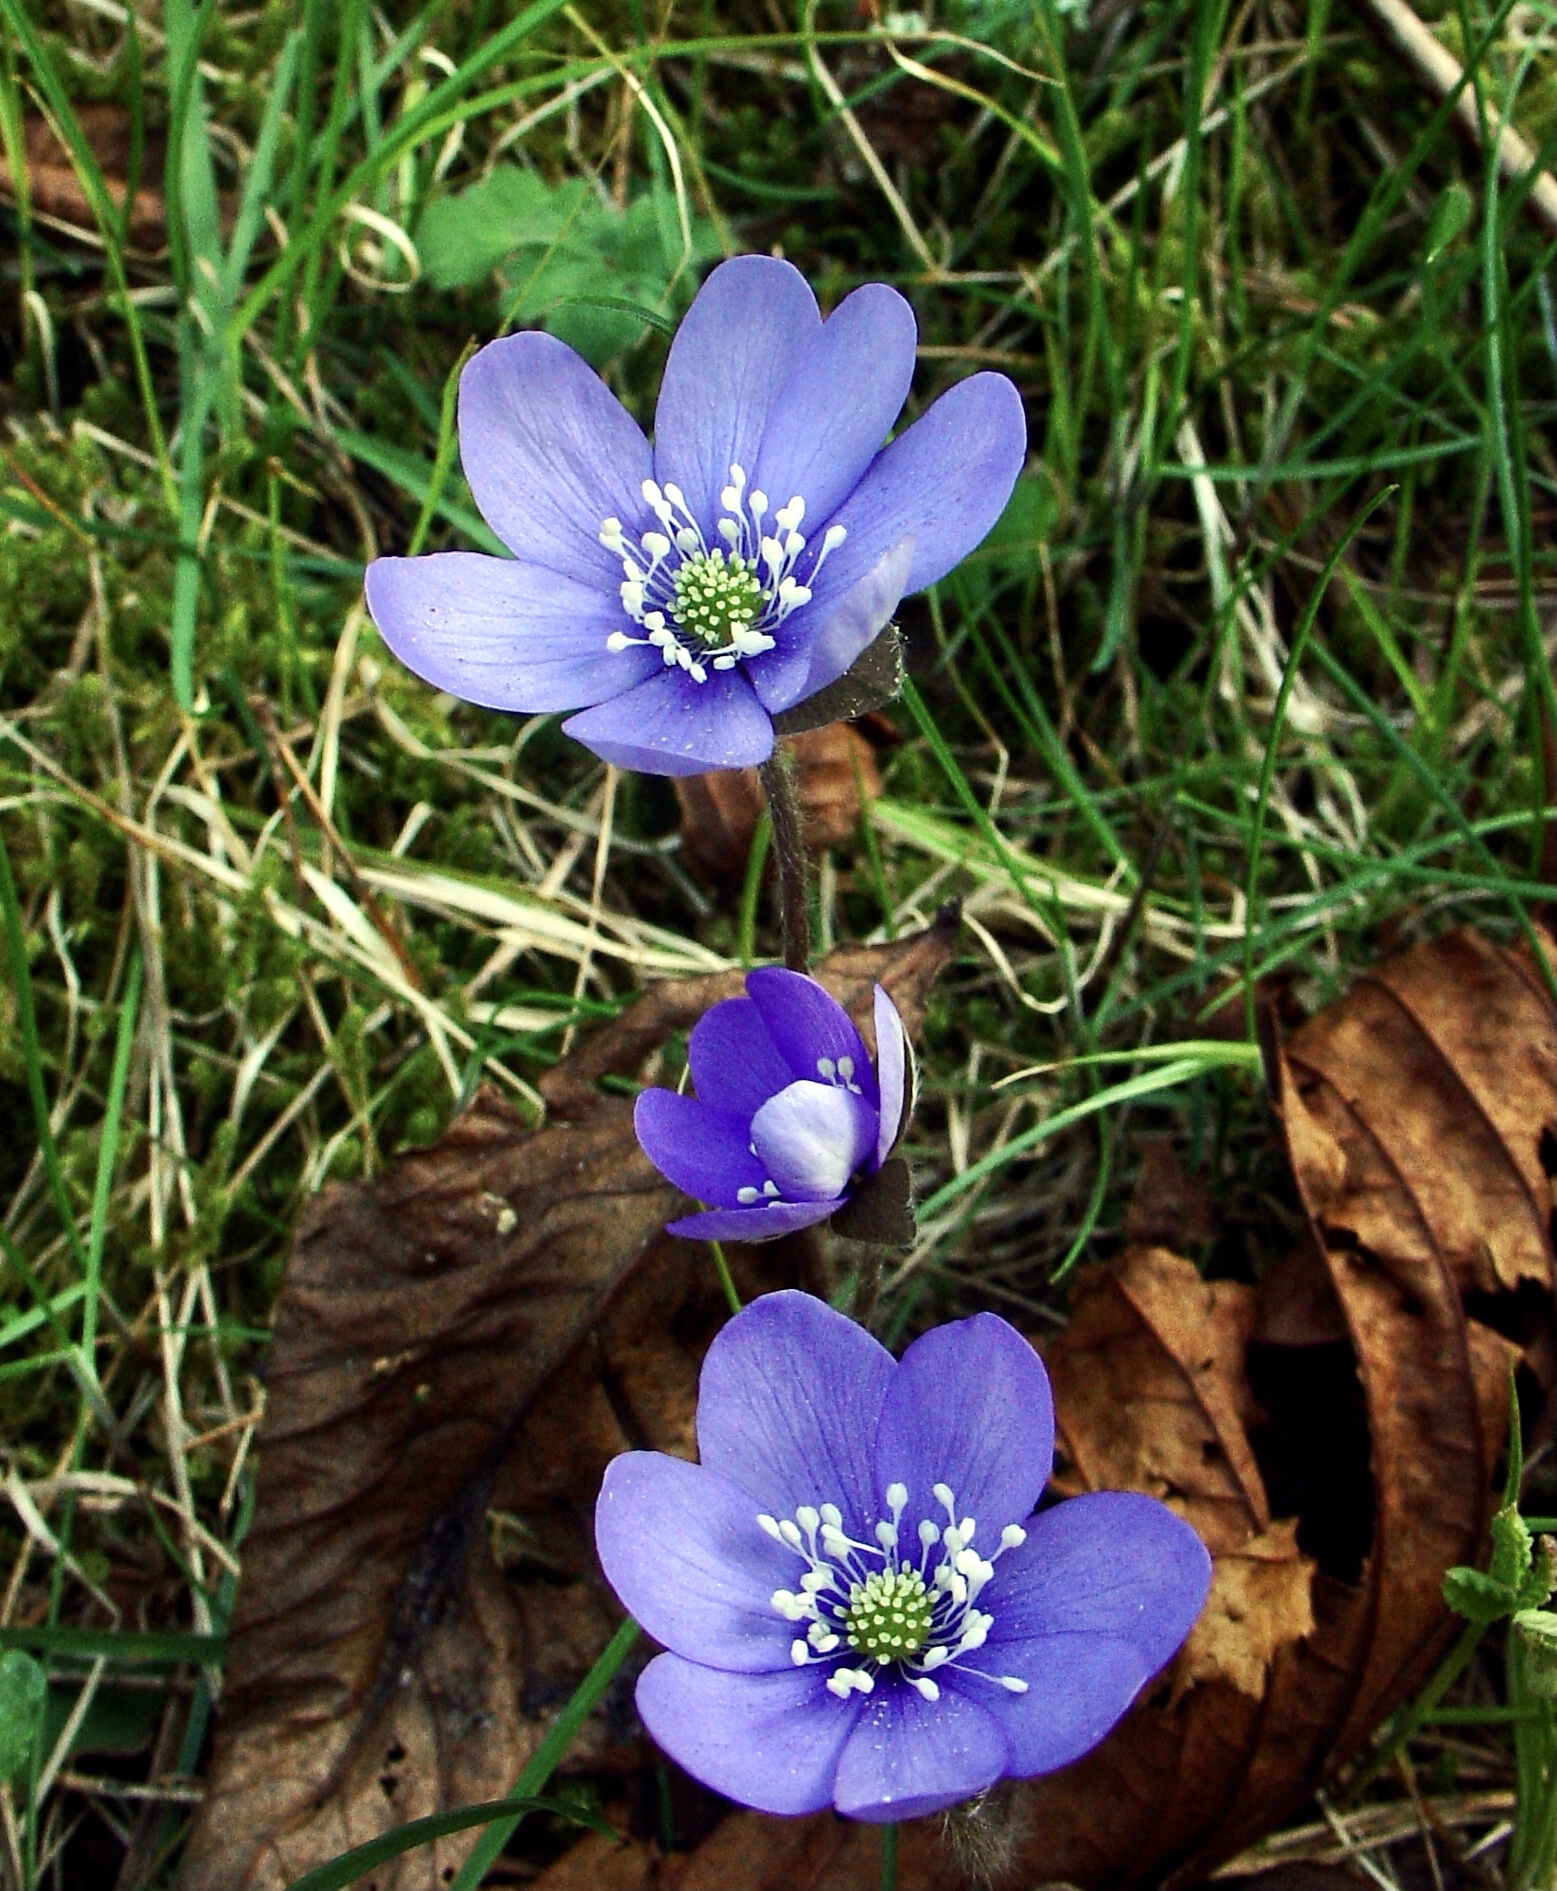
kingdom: Plantae
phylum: Tracheophyta
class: Magnoliopsida
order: Ranunculales
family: Ranunculaceae
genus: Hepatica
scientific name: Hepatica nobilis
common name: Liverleaf
